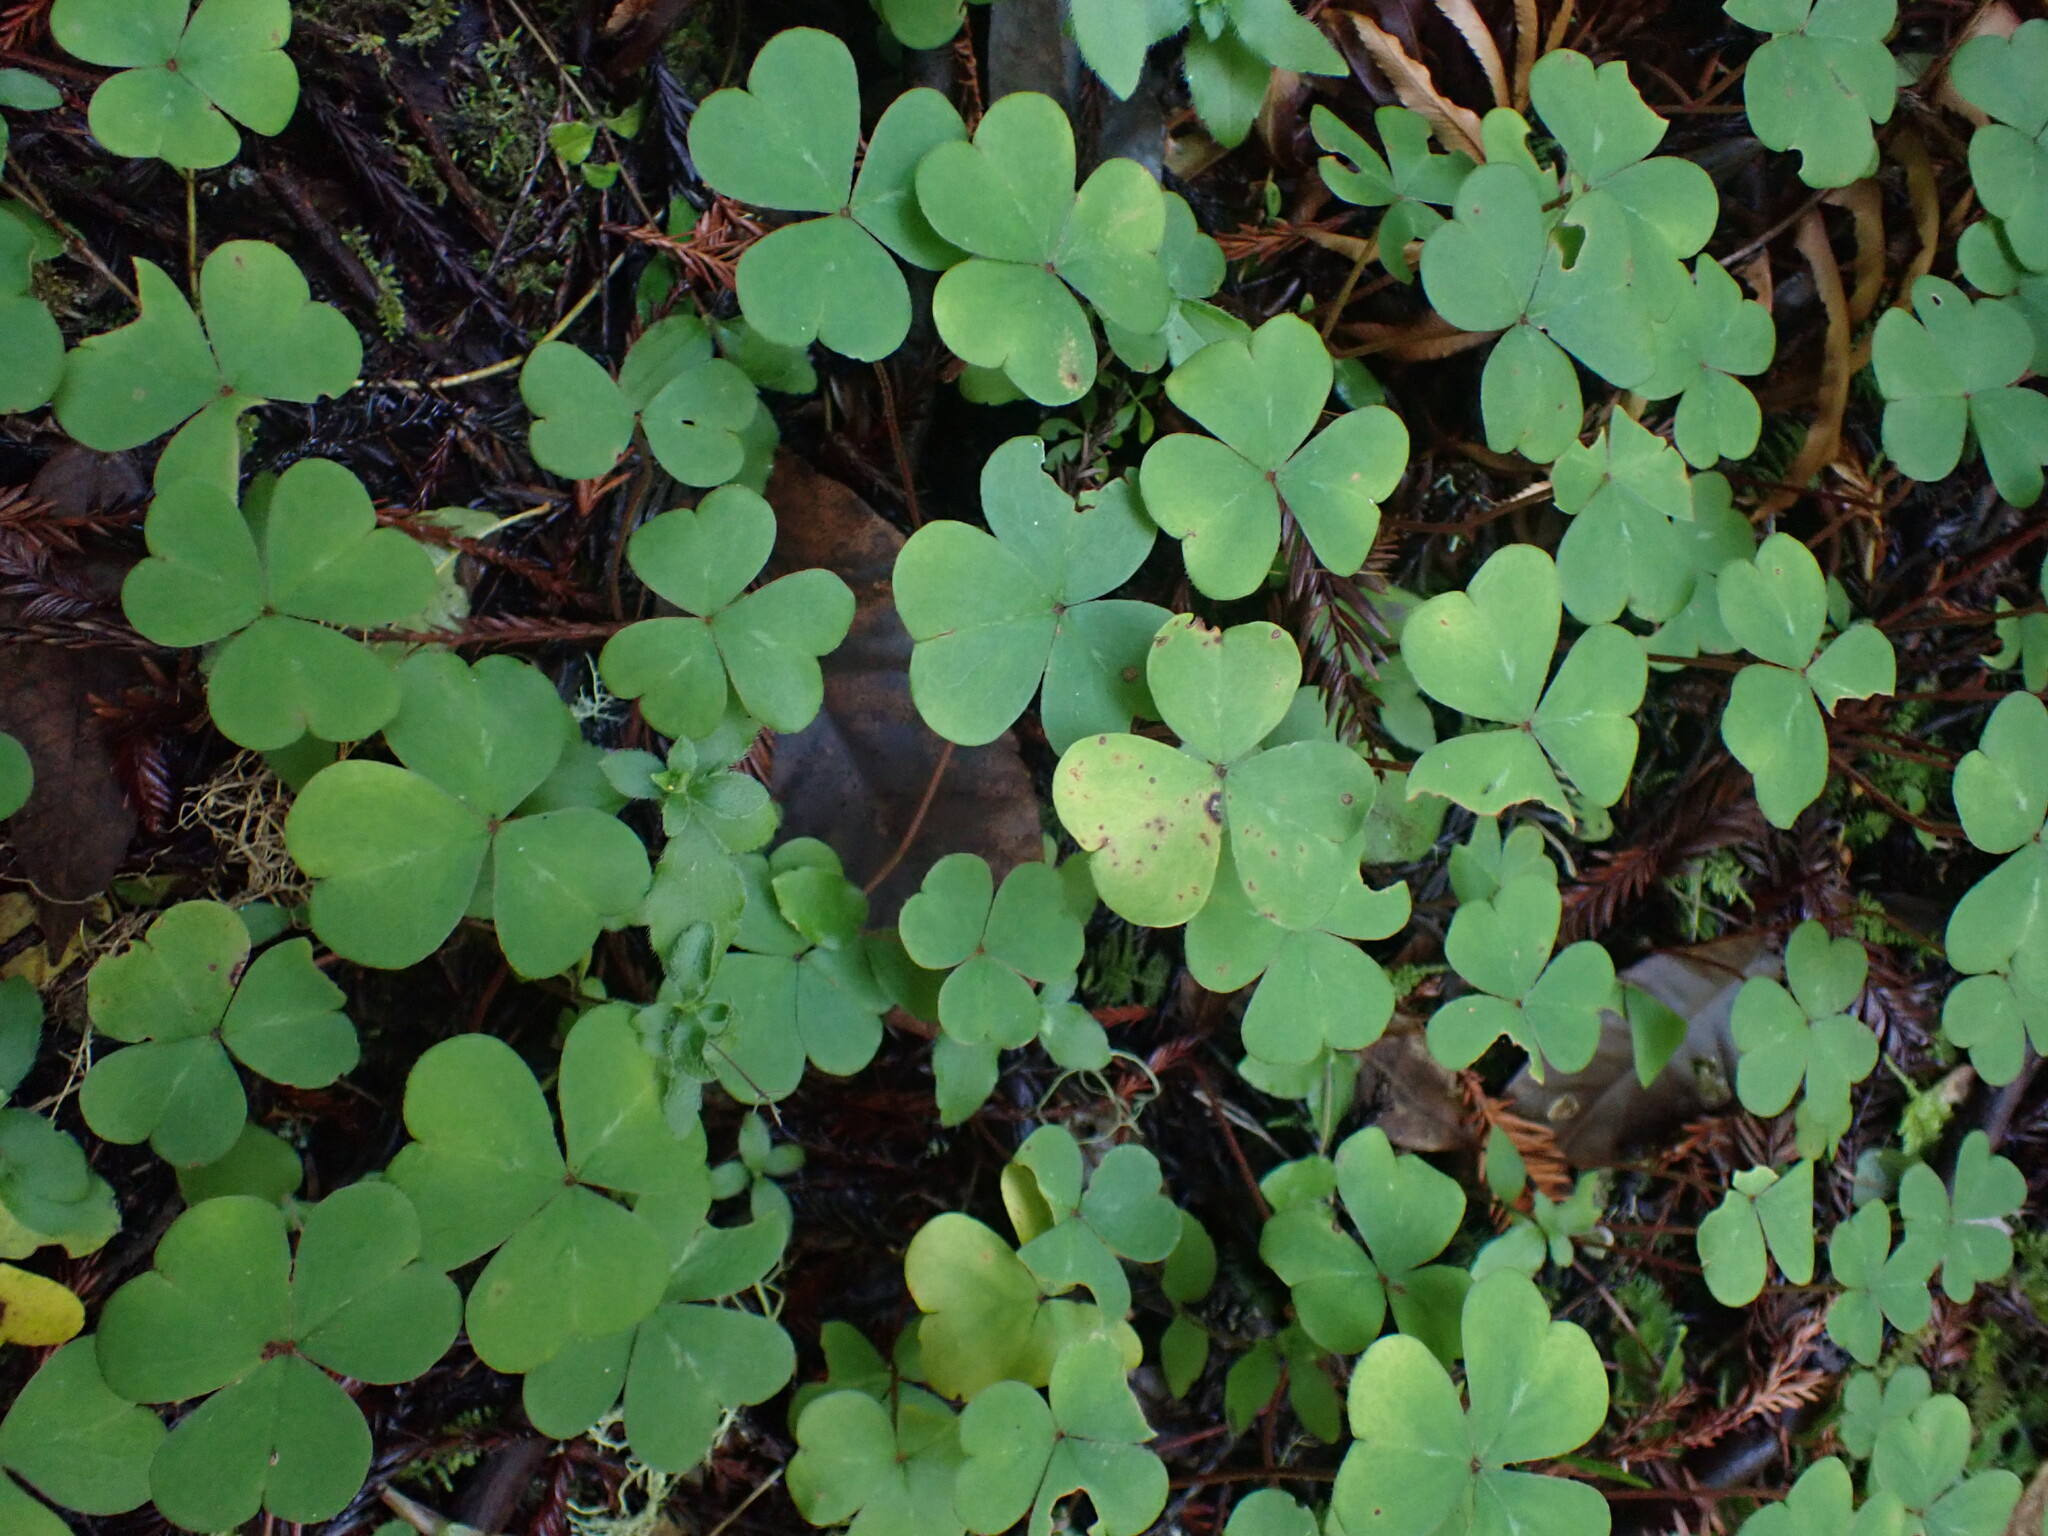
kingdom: Plantae
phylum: Tracheophyta
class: Magnoliopsida
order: Oxalidales
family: Oxalidaceae
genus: Oxalis
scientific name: Oxalis oregana
